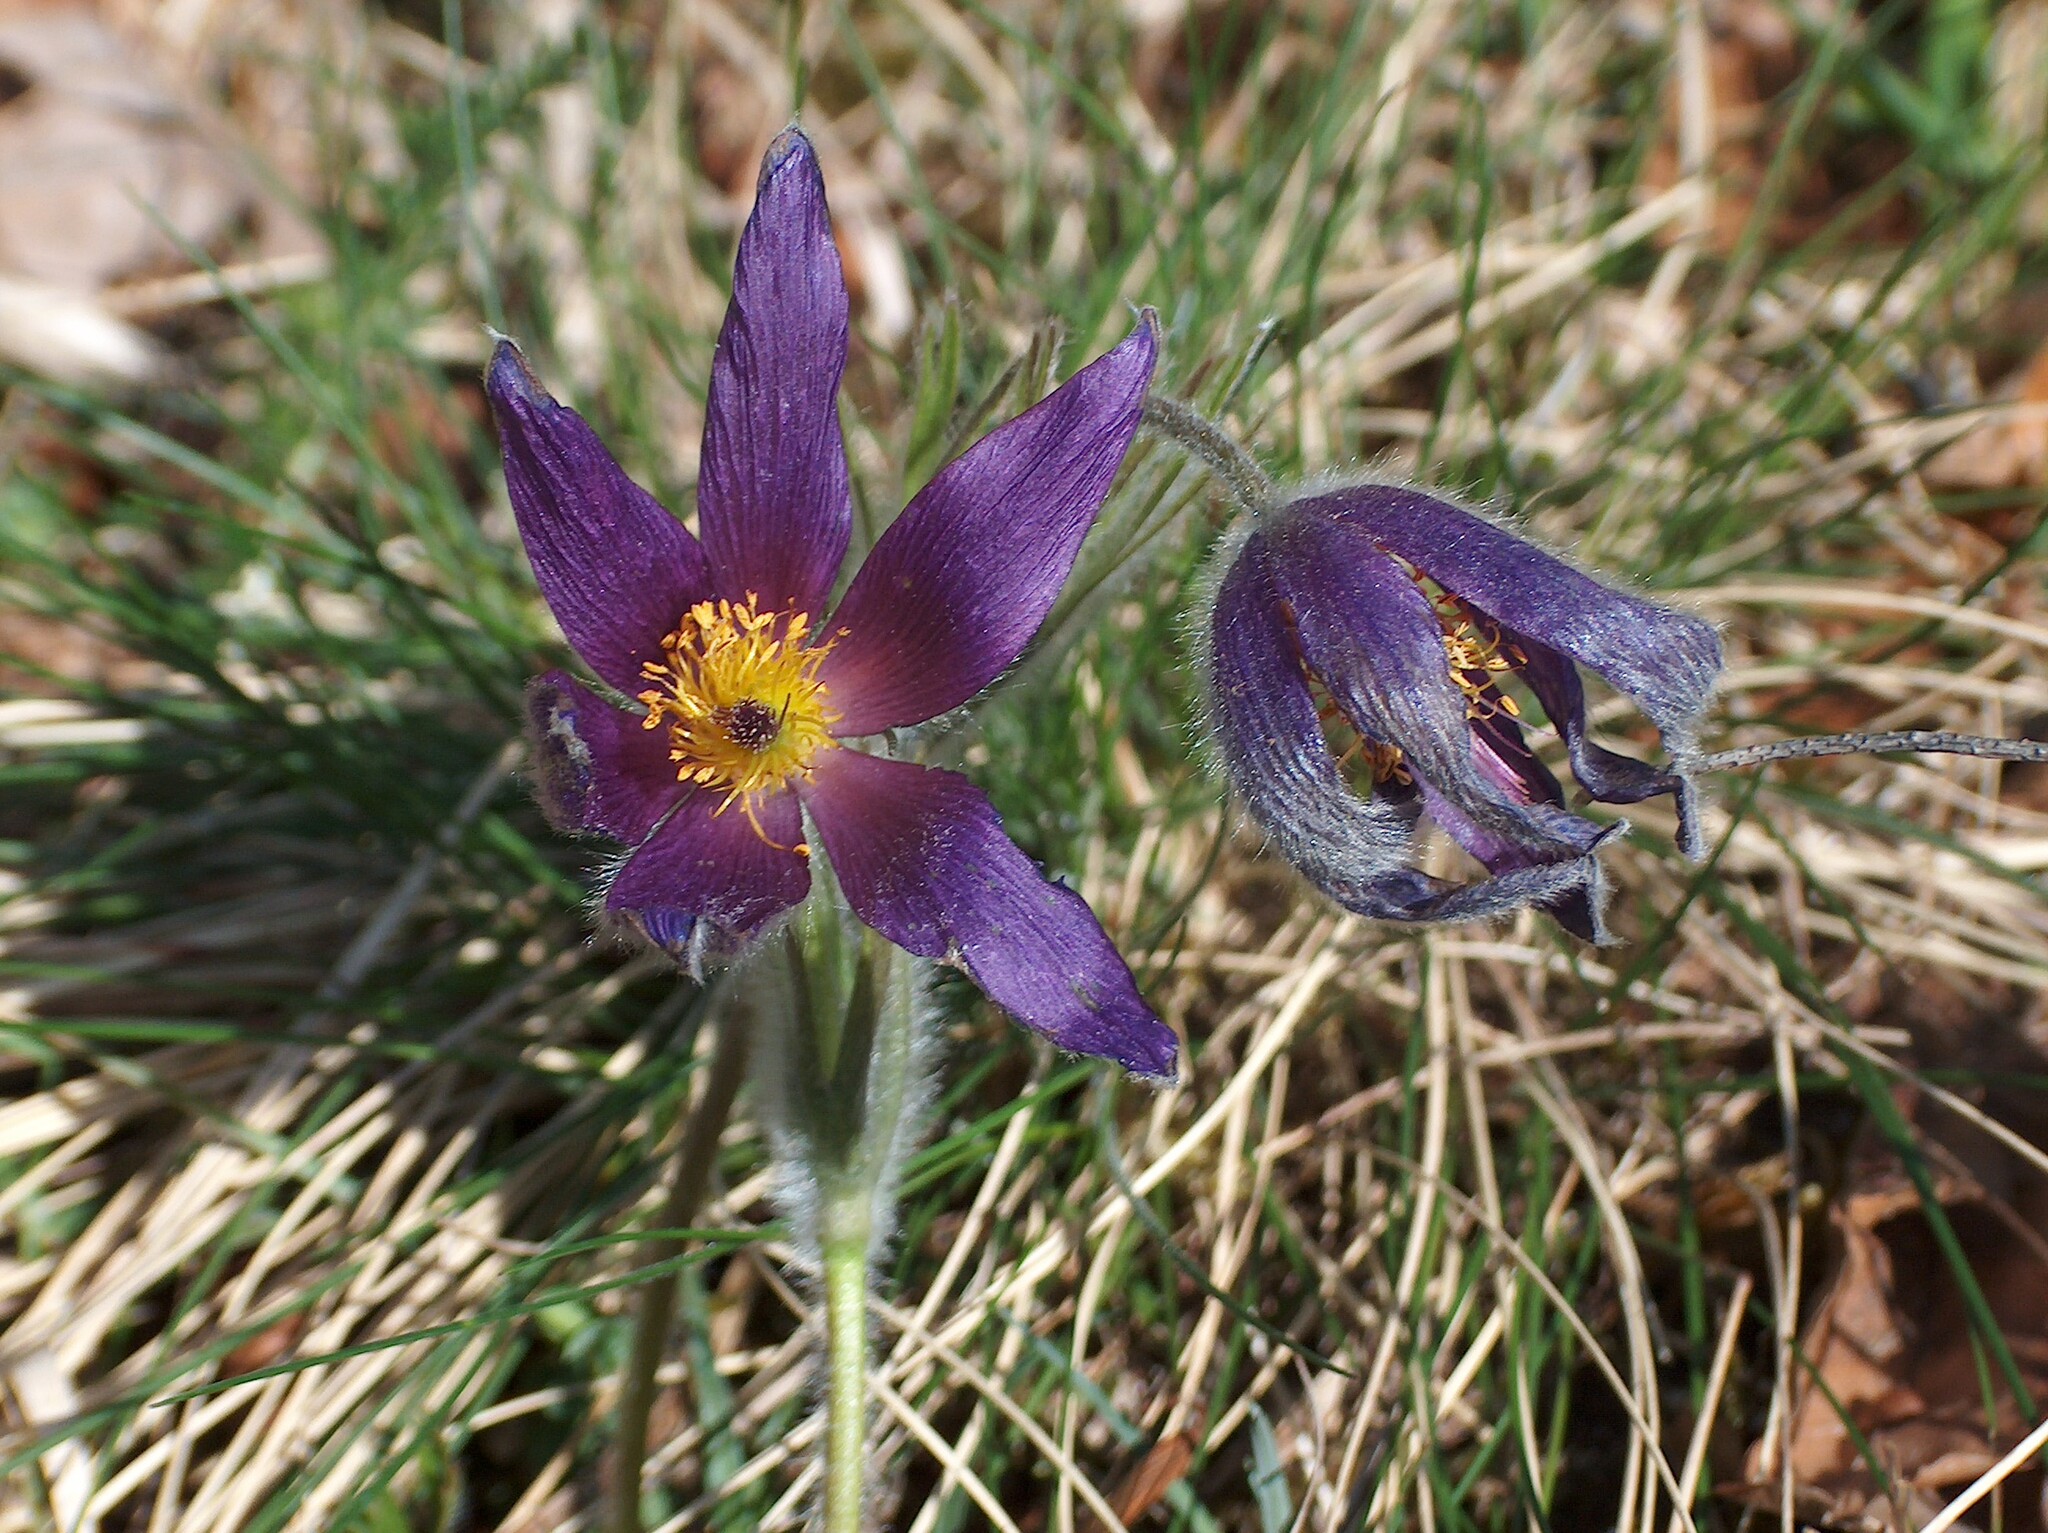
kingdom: Plantae
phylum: Tracheophyta
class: Magnoliopsida
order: Ranunculales
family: Ranunculaceae
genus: Pulsatilla
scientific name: Pulsatilla vulgaris
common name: Pasqueflower
